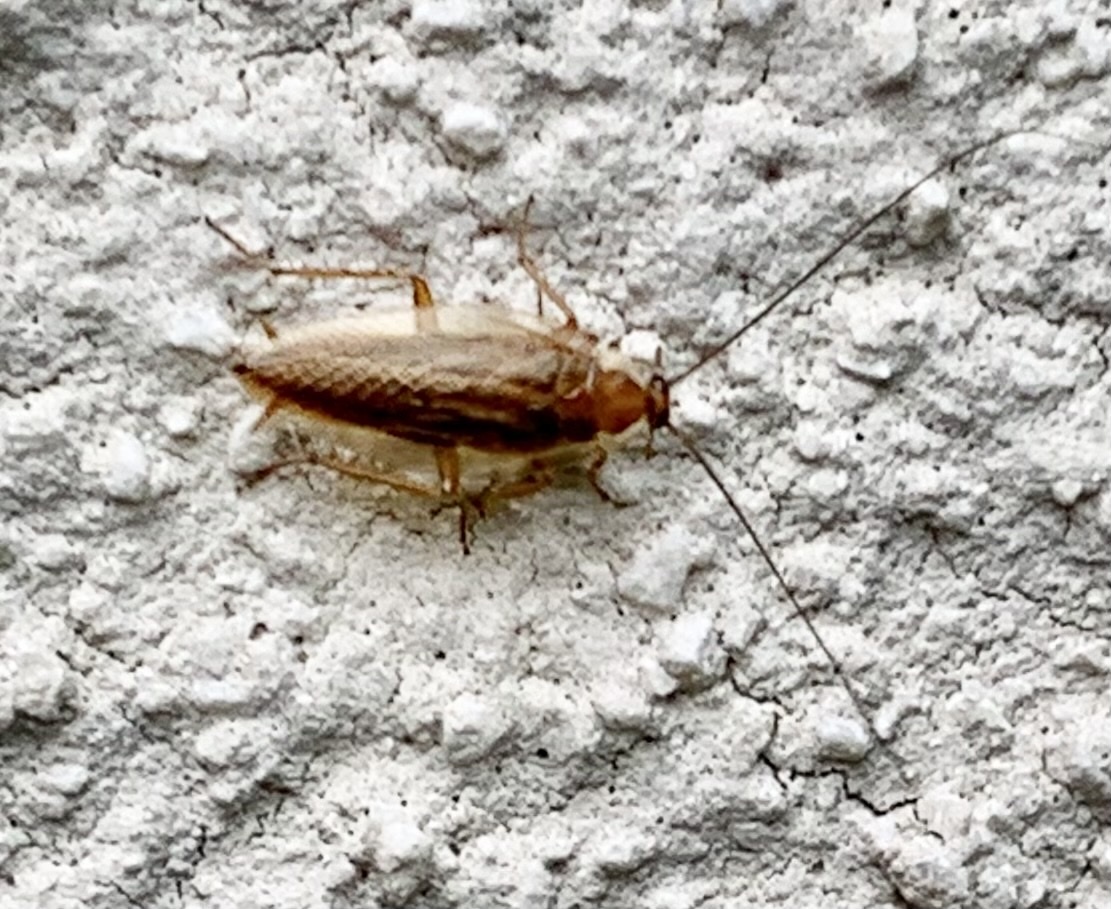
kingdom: Animalia
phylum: Arthropoda
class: Insecta
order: Blattodea
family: Ectobiidae
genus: Ectobius
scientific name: Ectobius vittiventris
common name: Garden cockroach
